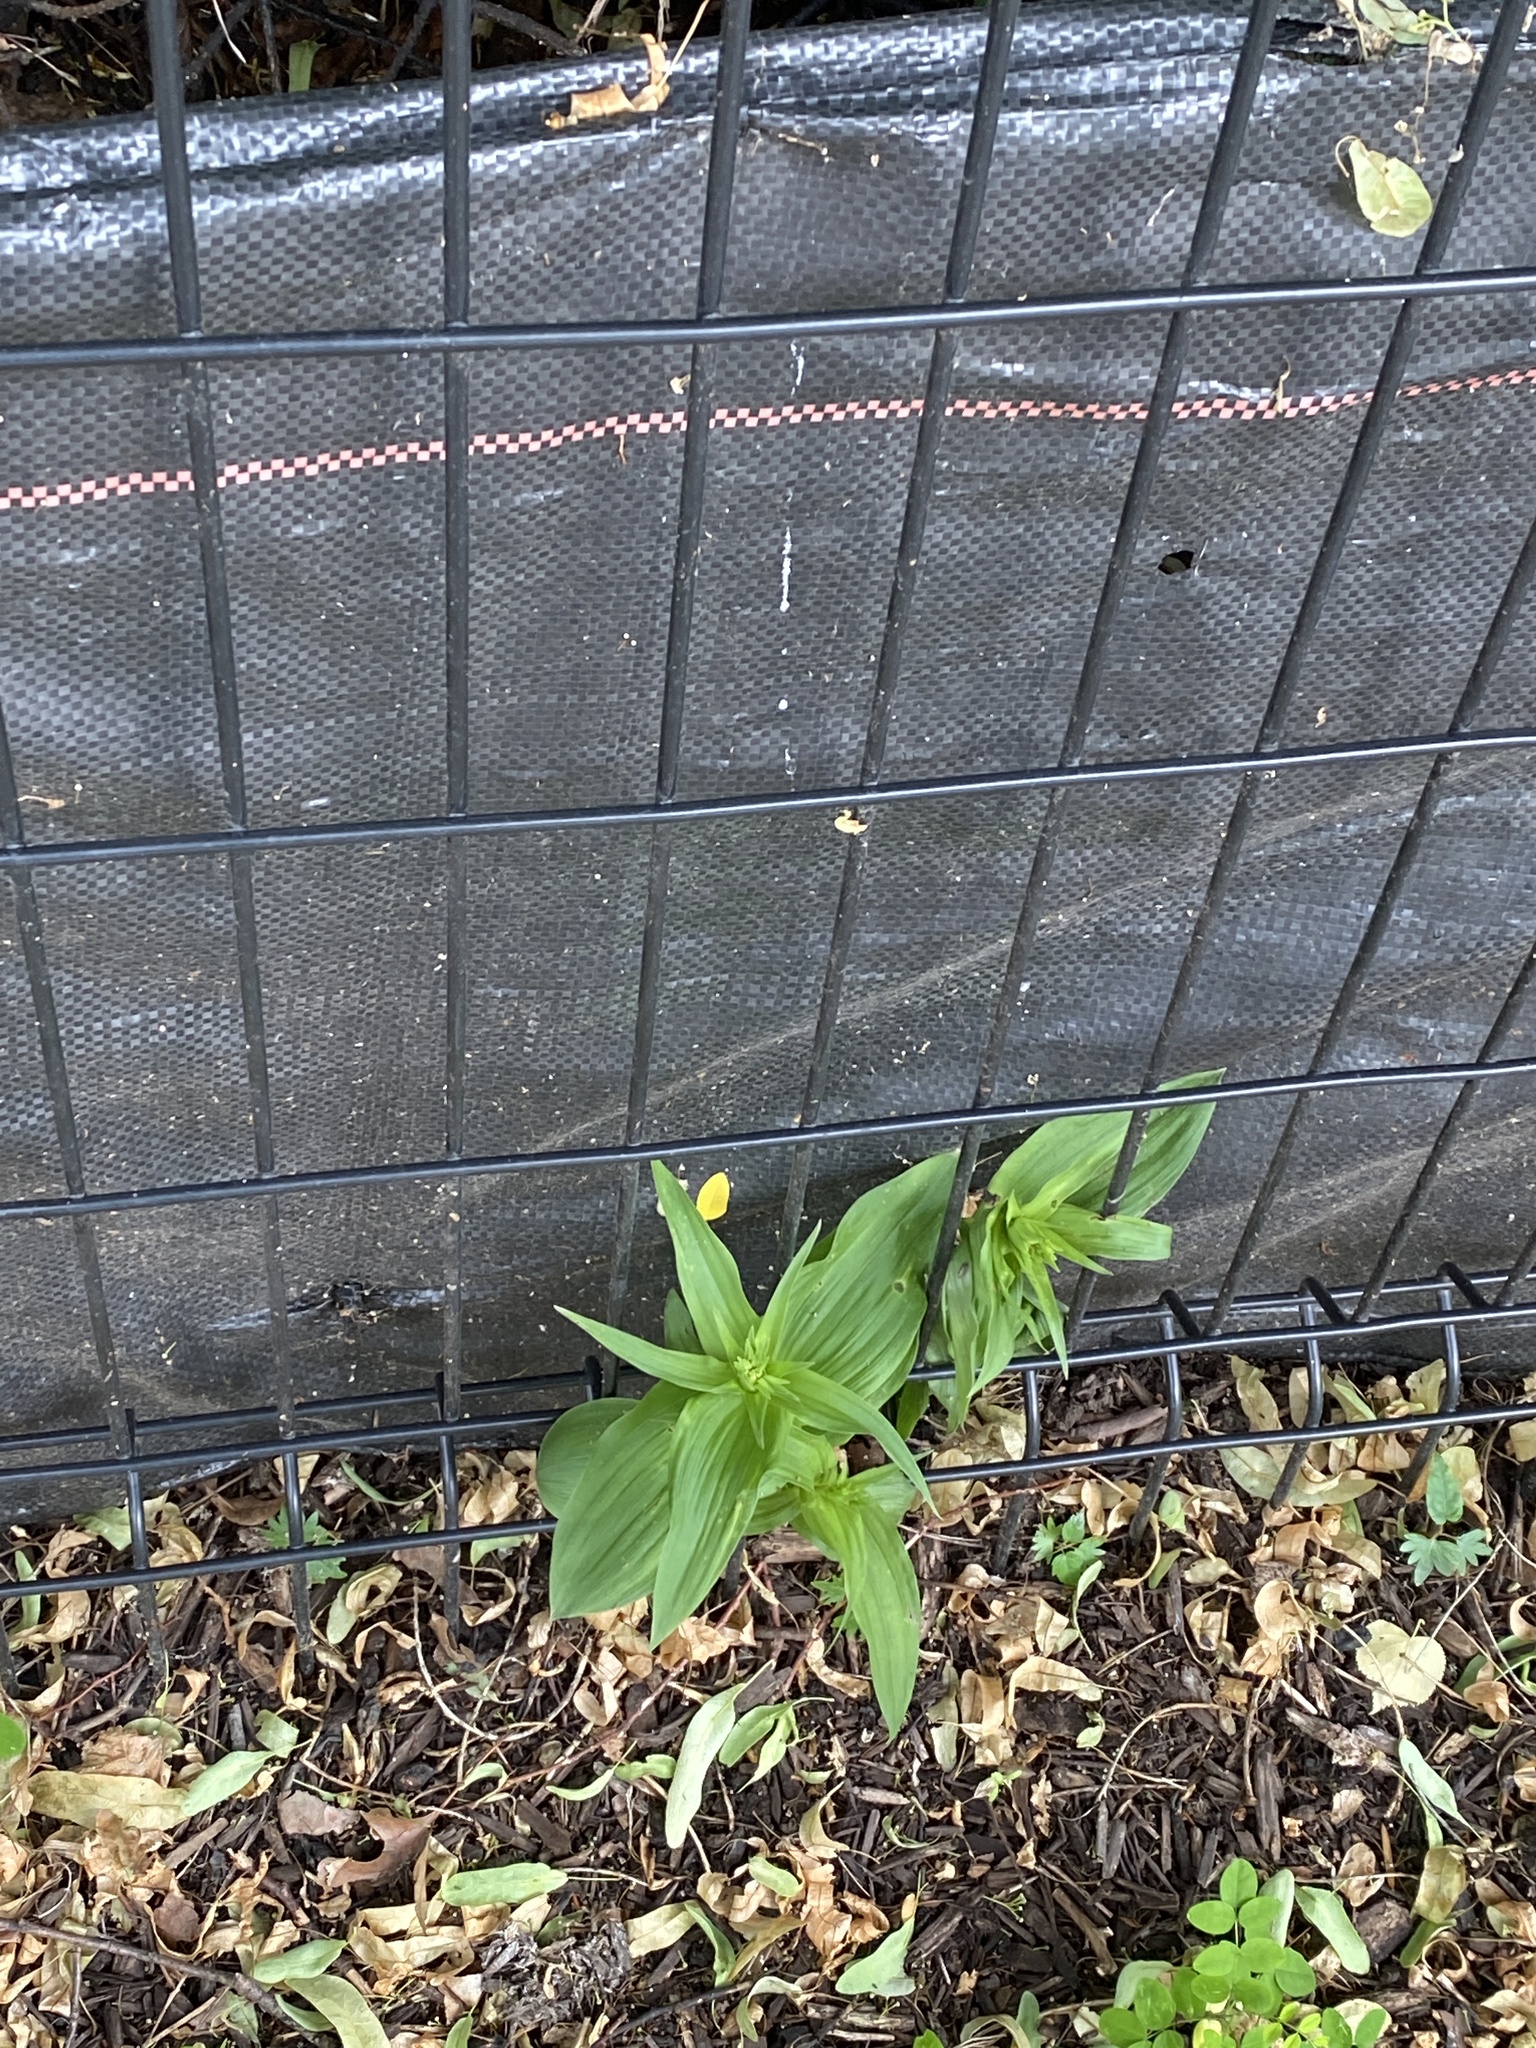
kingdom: Plantae
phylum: Tracheophyta
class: Liliopsida
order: Asparagales
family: Orchidaceae
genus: Epipactis
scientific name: Epipactis helleborine
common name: Broad-leaved helleborine
